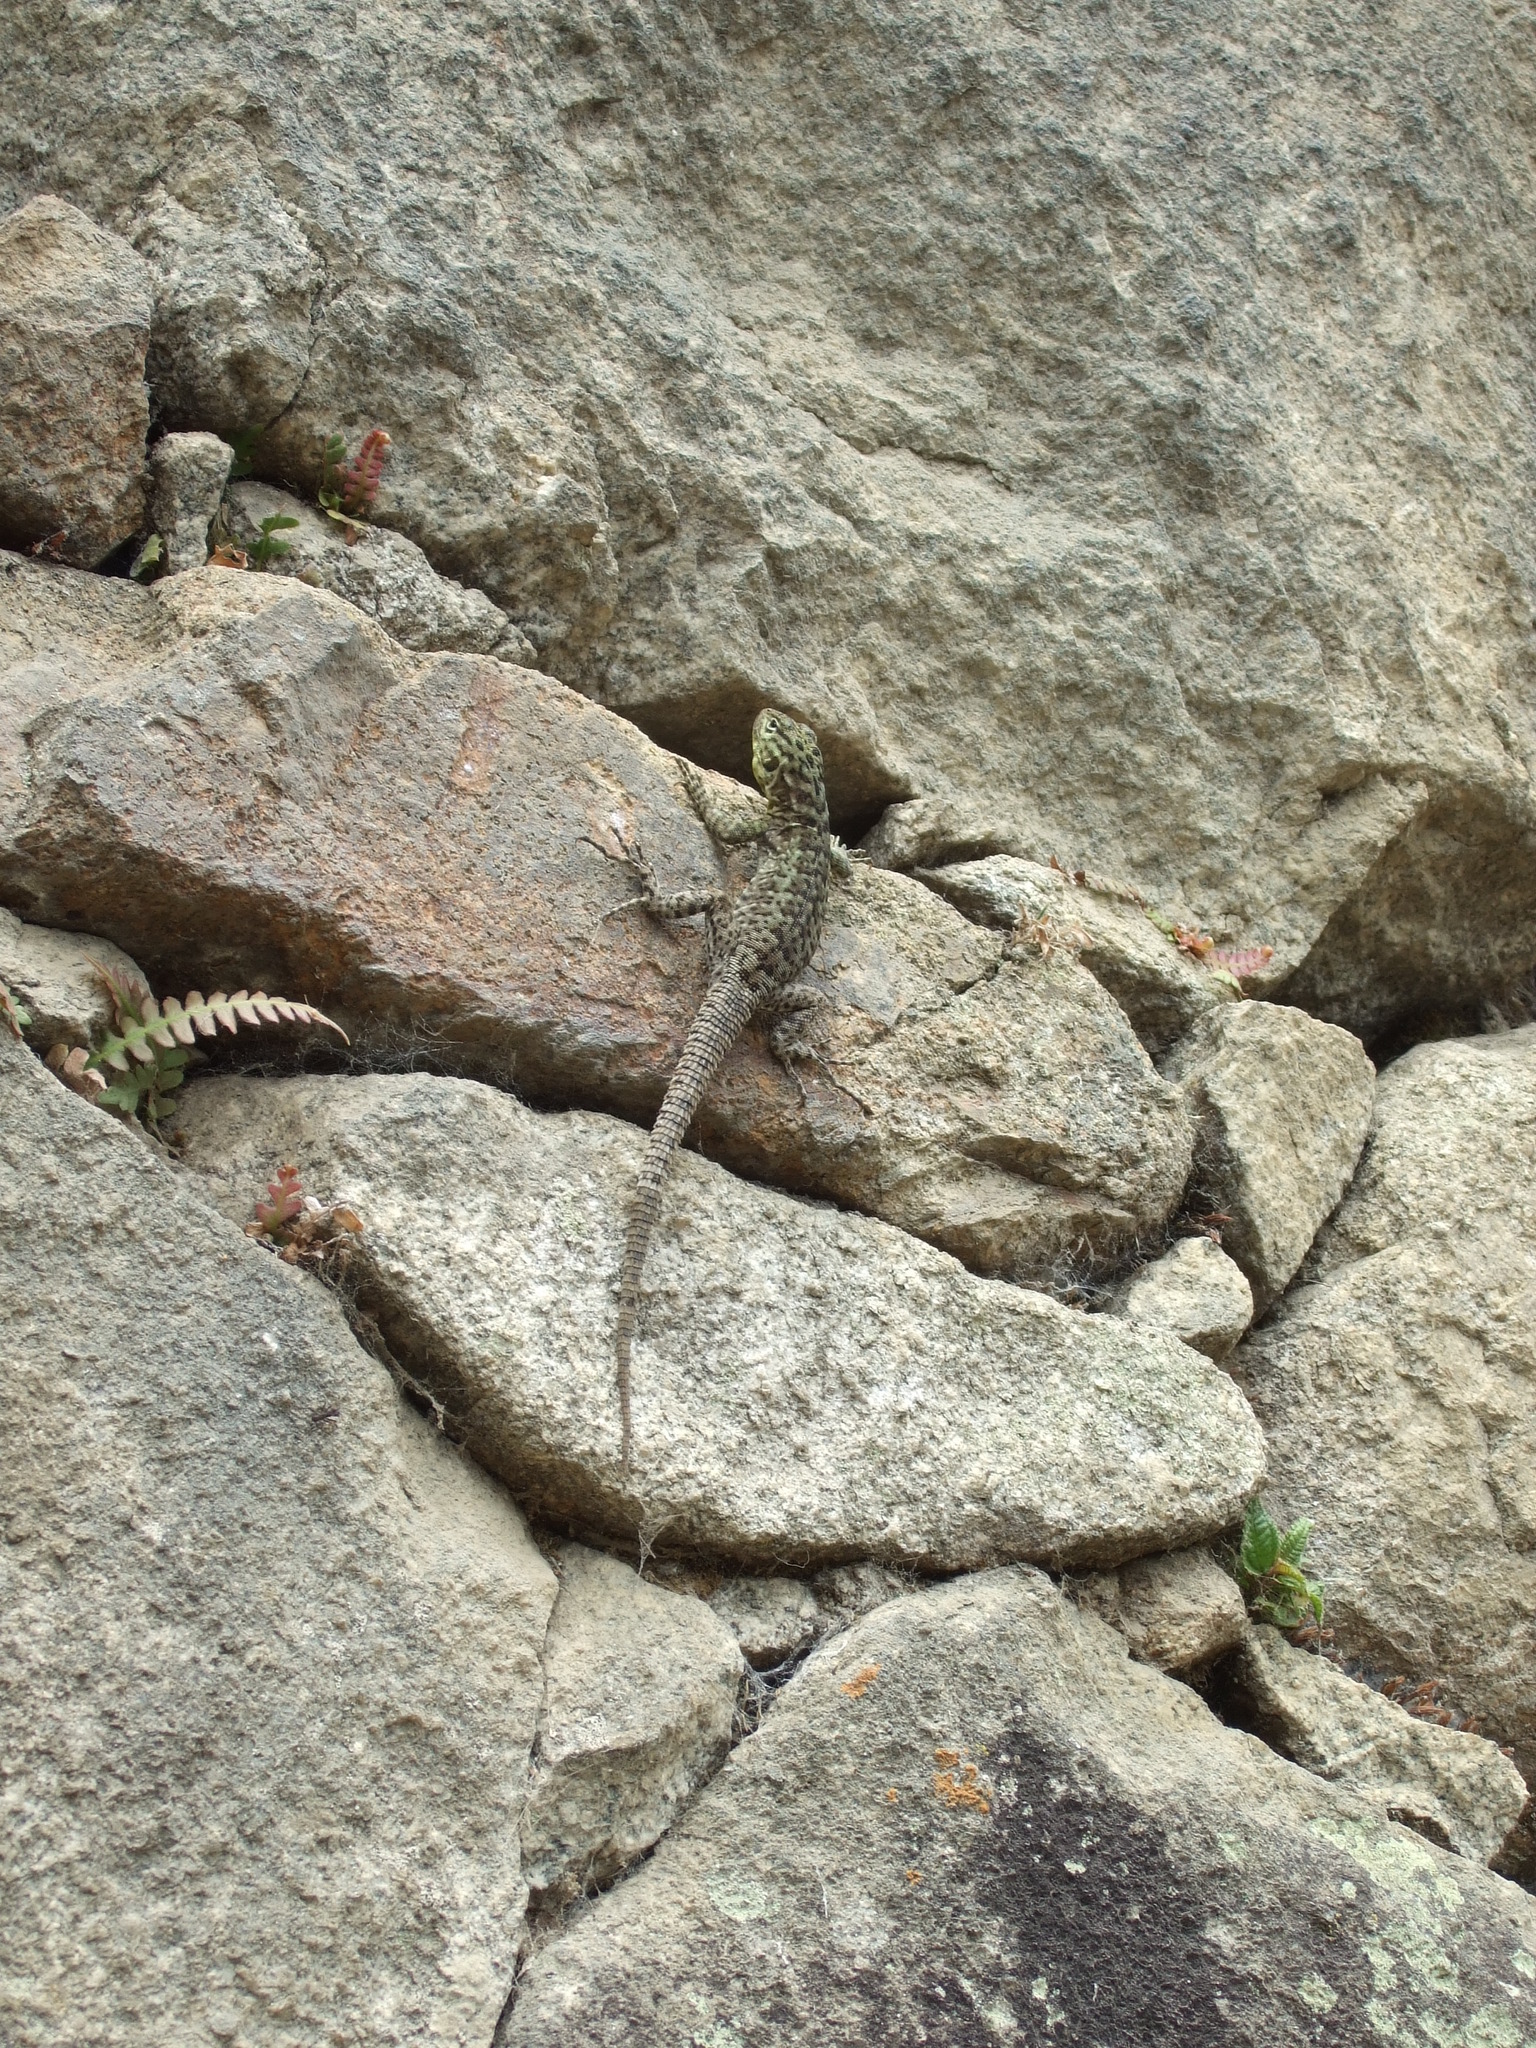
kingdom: Animalia
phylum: Chordata
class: Squamata
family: Tropiduridae
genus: Stenocercus
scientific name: Stenocercus crassicaudatus
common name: Spiny whorltail iguana
